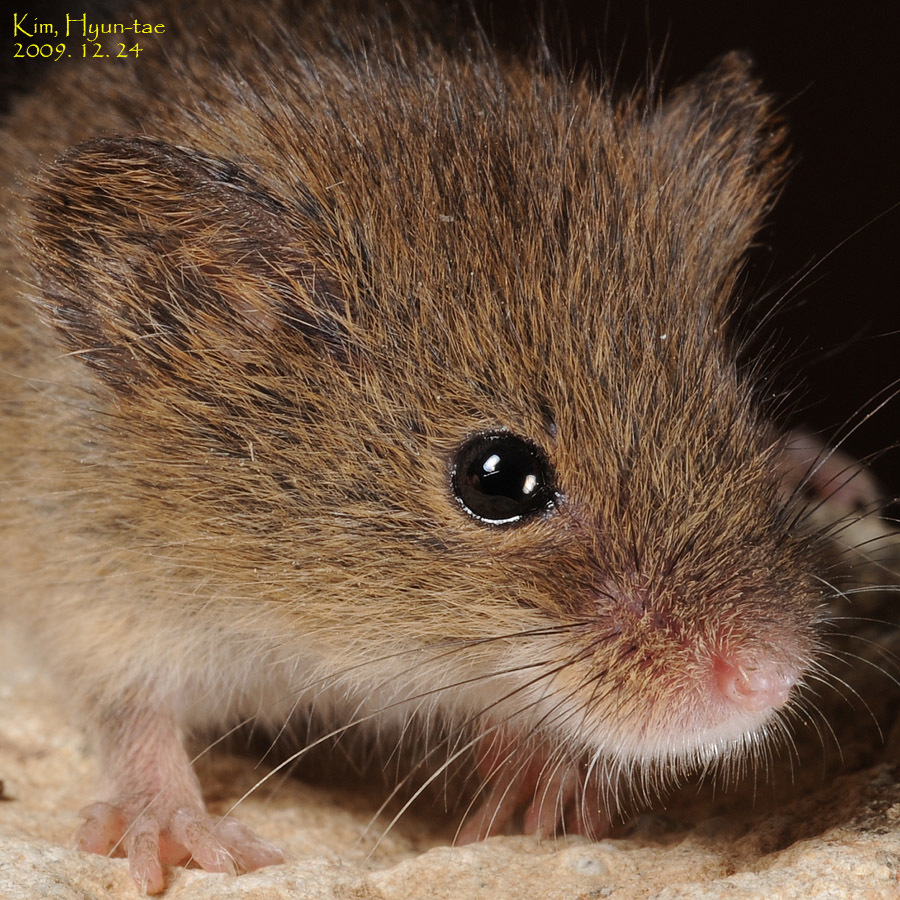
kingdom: Animalia
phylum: Chordata
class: Mammalia
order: Rodentia
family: Muridae
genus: Micromys
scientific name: Micromys minutus
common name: Harvest mouse
